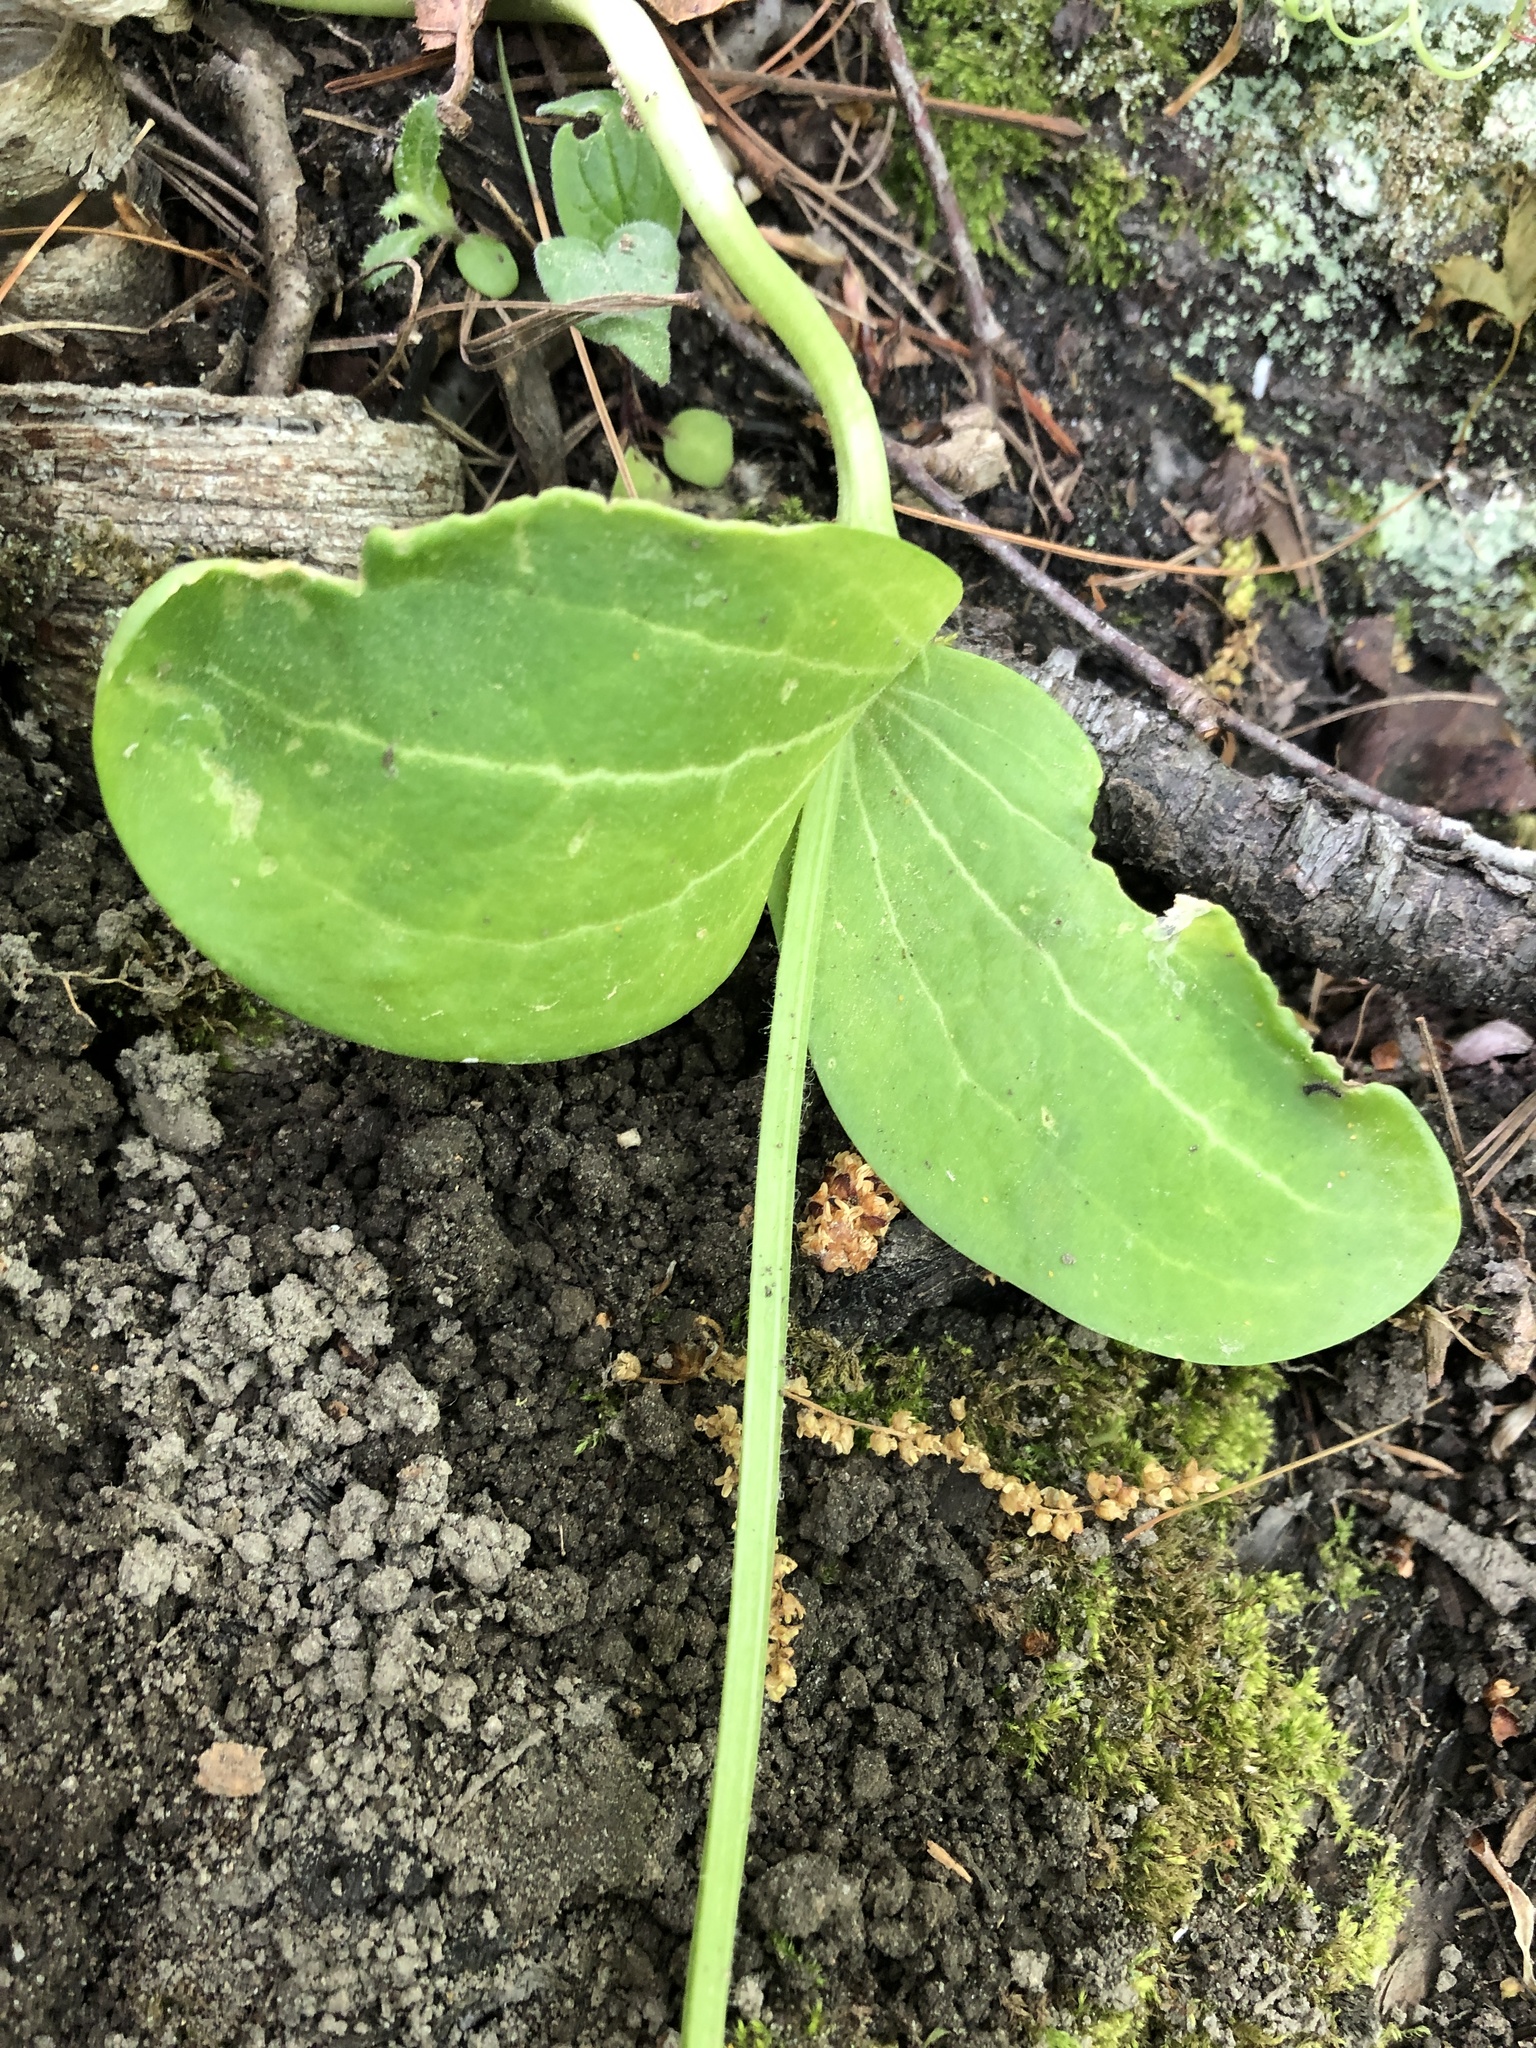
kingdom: Plantae
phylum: Tracheophyta
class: Magnoliopsida
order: Cucurbitales
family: Cucurbitaceae
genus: Echinocystis
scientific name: Echinocystis lobata
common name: Wild cucumber
